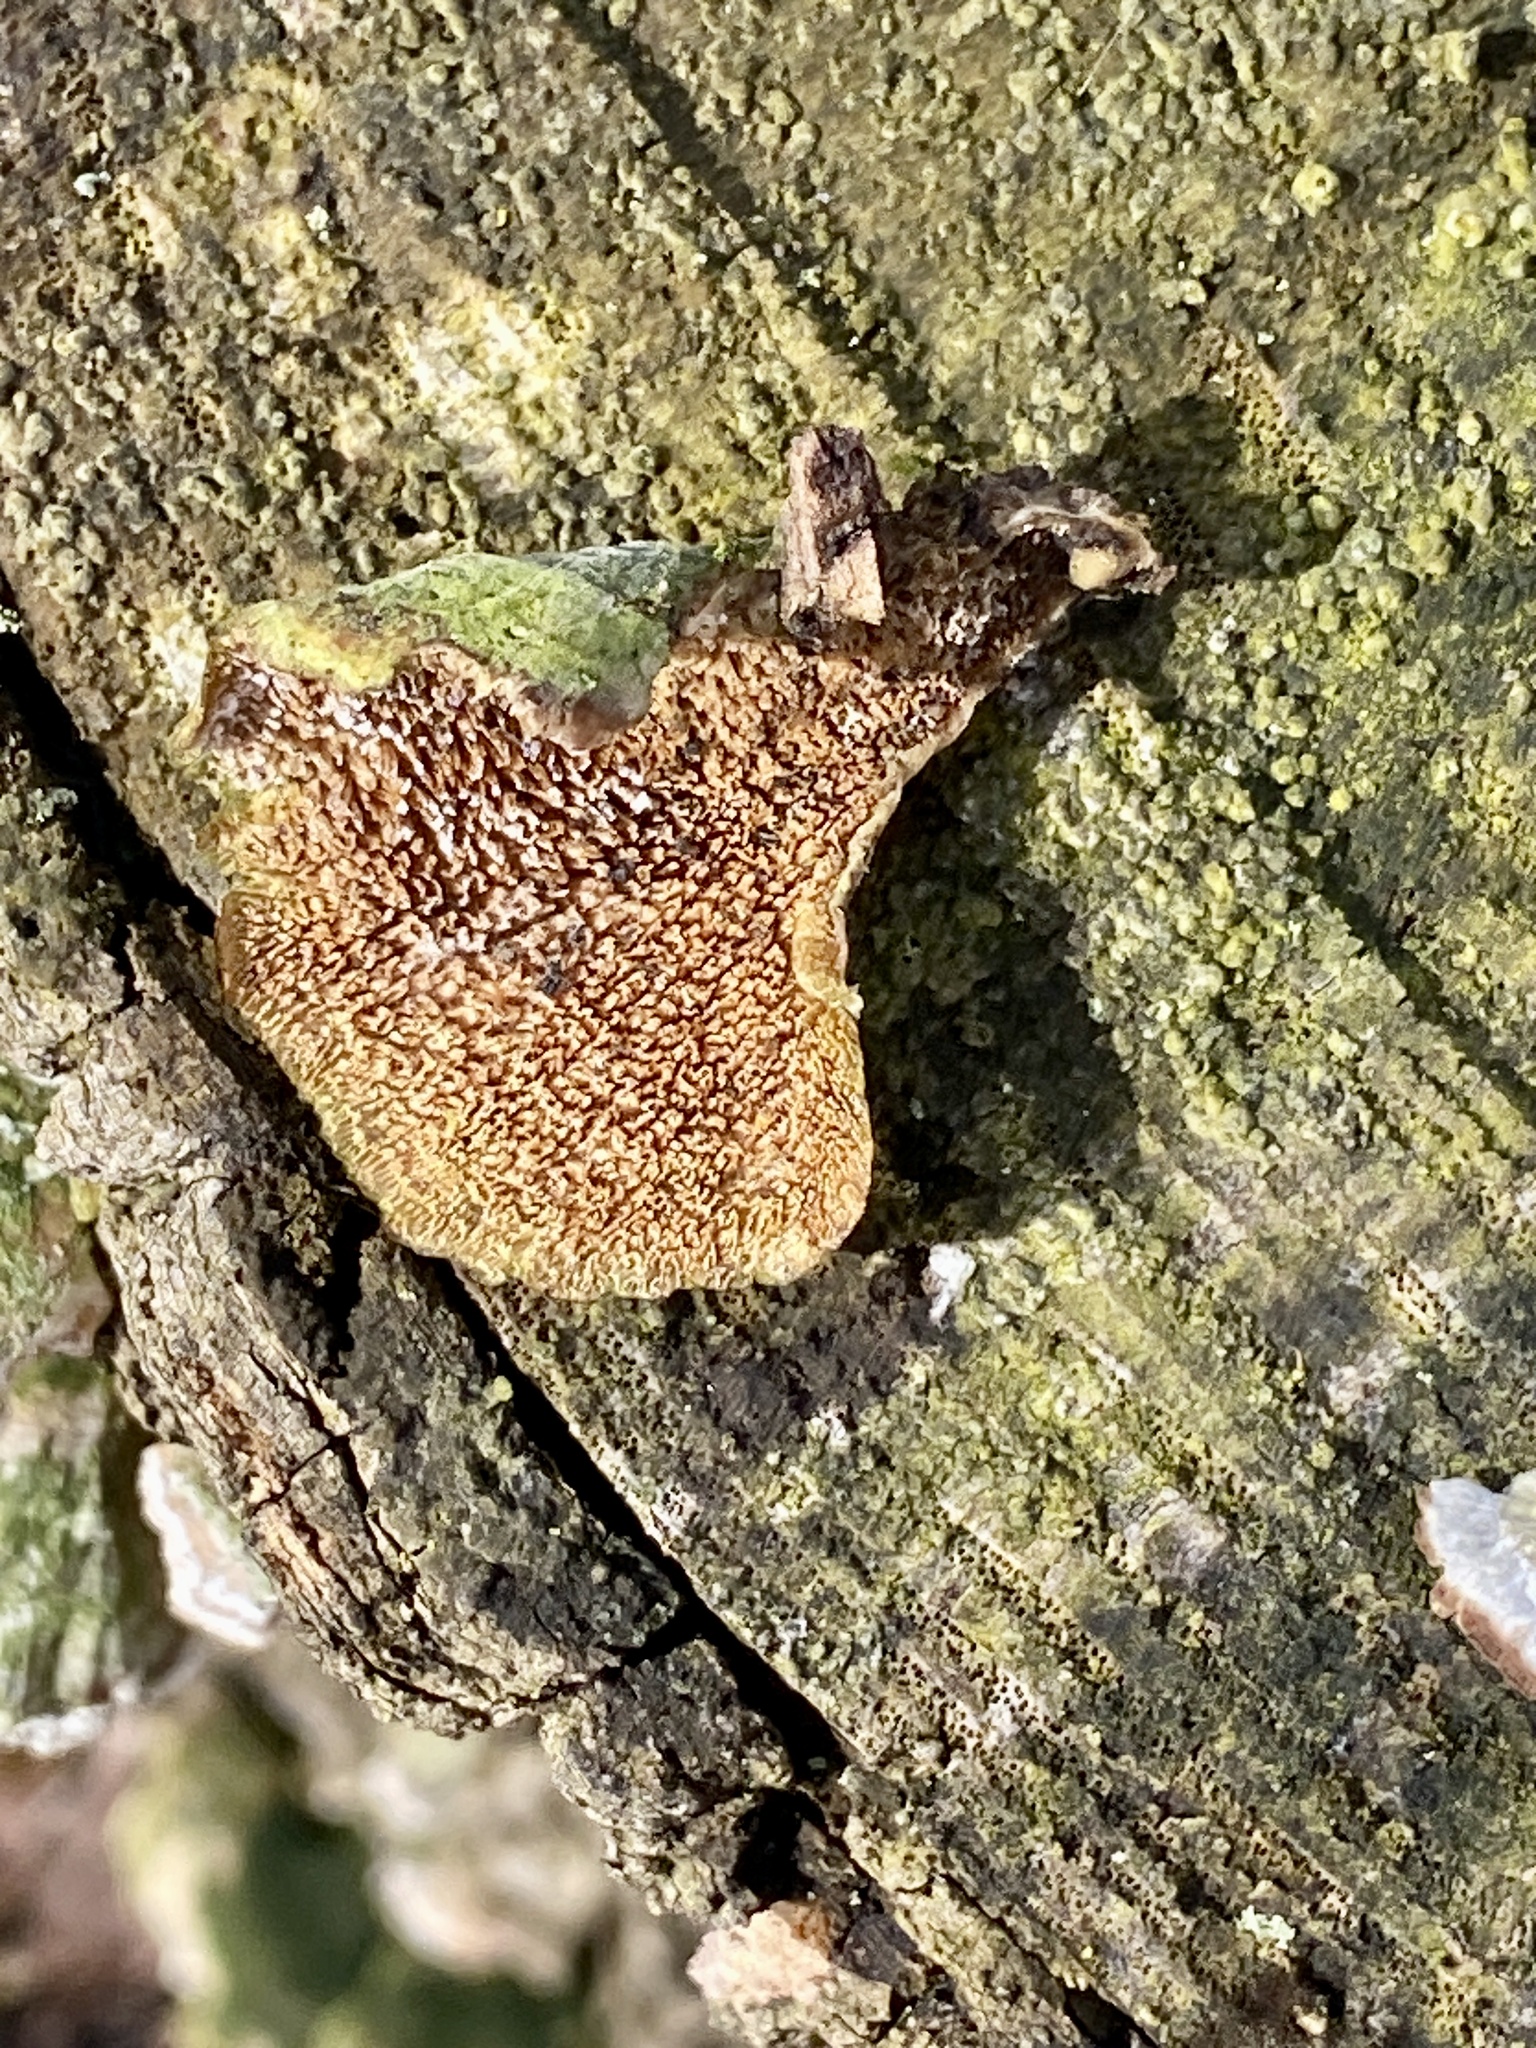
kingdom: Fungi
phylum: Basidiomycota
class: Agaricomycetes
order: Hymenochaetales
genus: Trichaptum
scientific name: Trichaptum biforme
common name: Violet-toothed polypore
